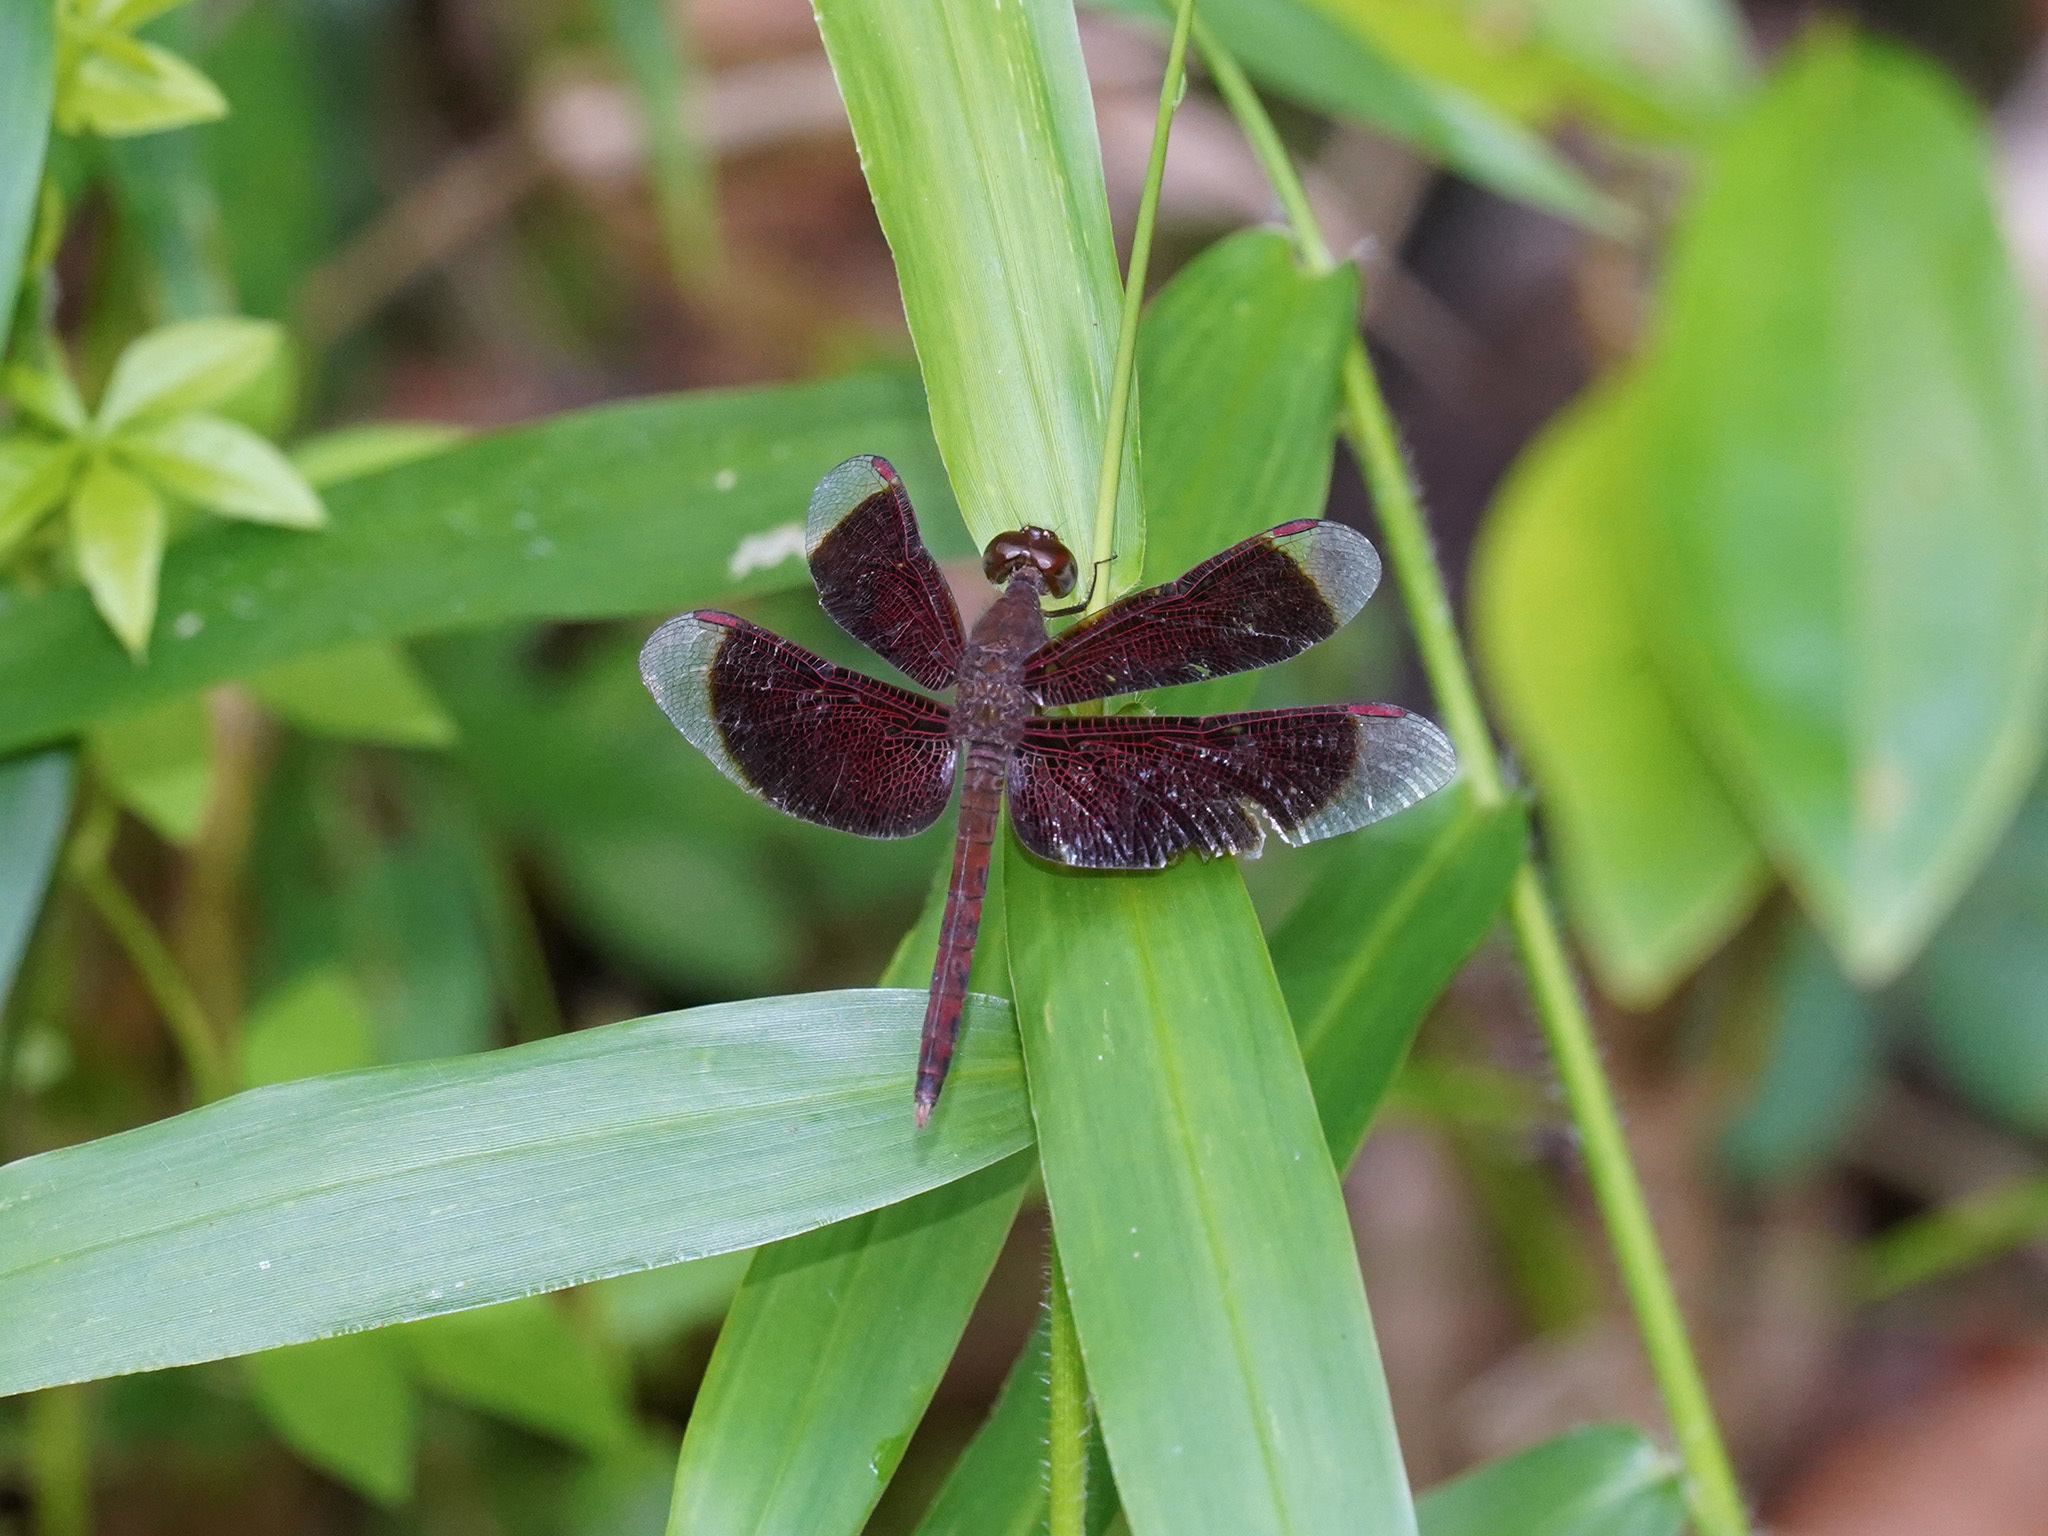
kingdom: Animalia
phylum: Arthropoda
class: Insecta
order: Odonata
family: Libellulidae
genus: Neurothemis
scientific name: Neurothemis fluctuans
